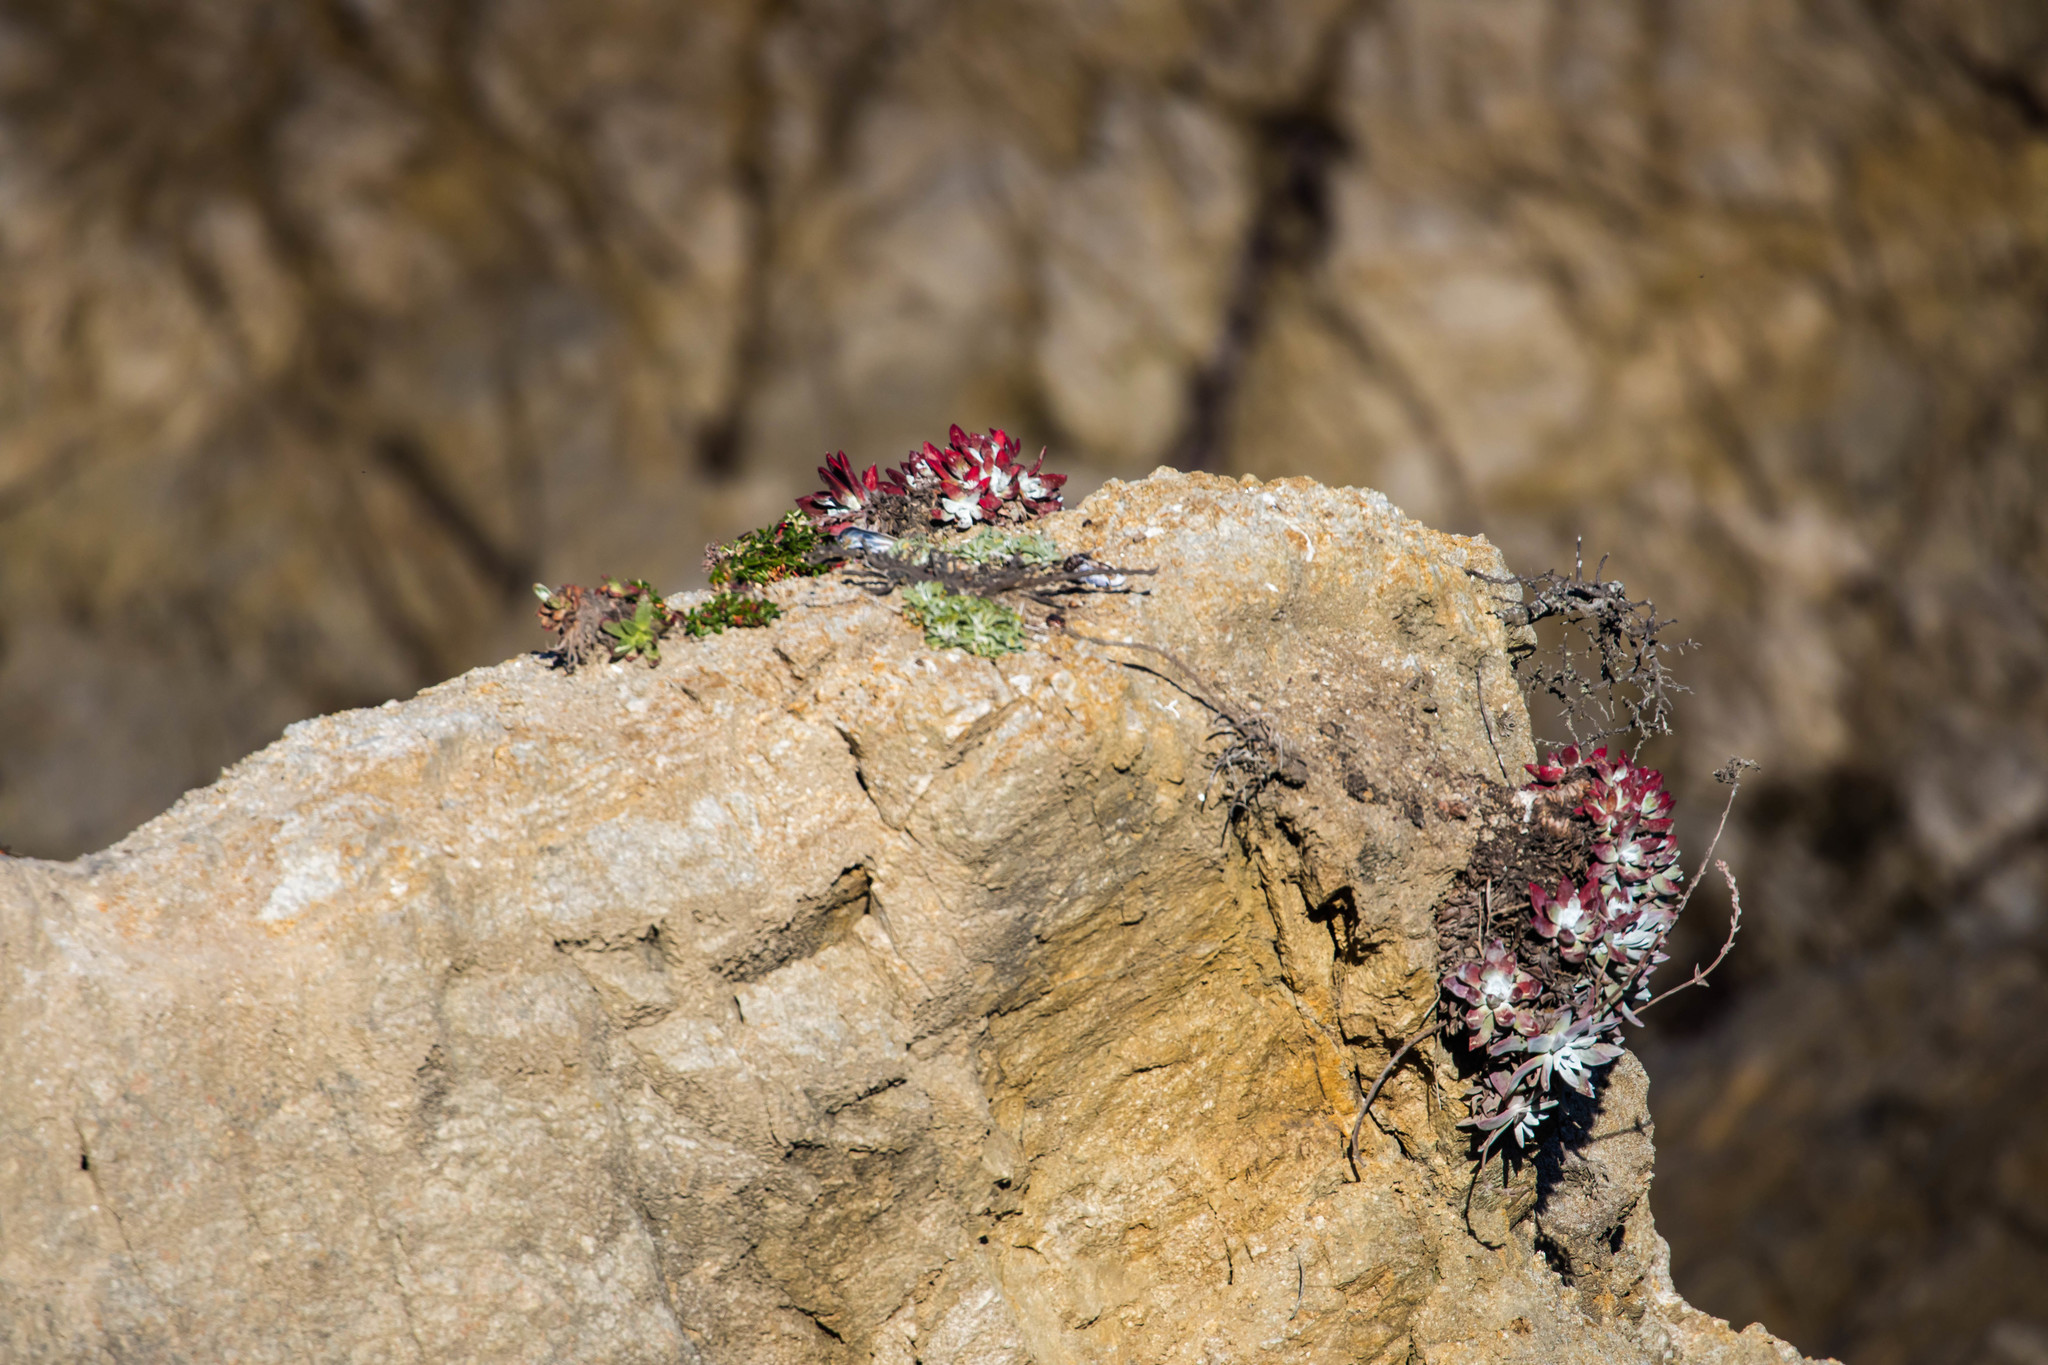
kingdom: Plantae
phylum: Tracheophyta
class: Magnoliopsida
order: Saxifragales
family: Crassulaceae
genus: Dudleya
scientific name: Dudleya farinosa
